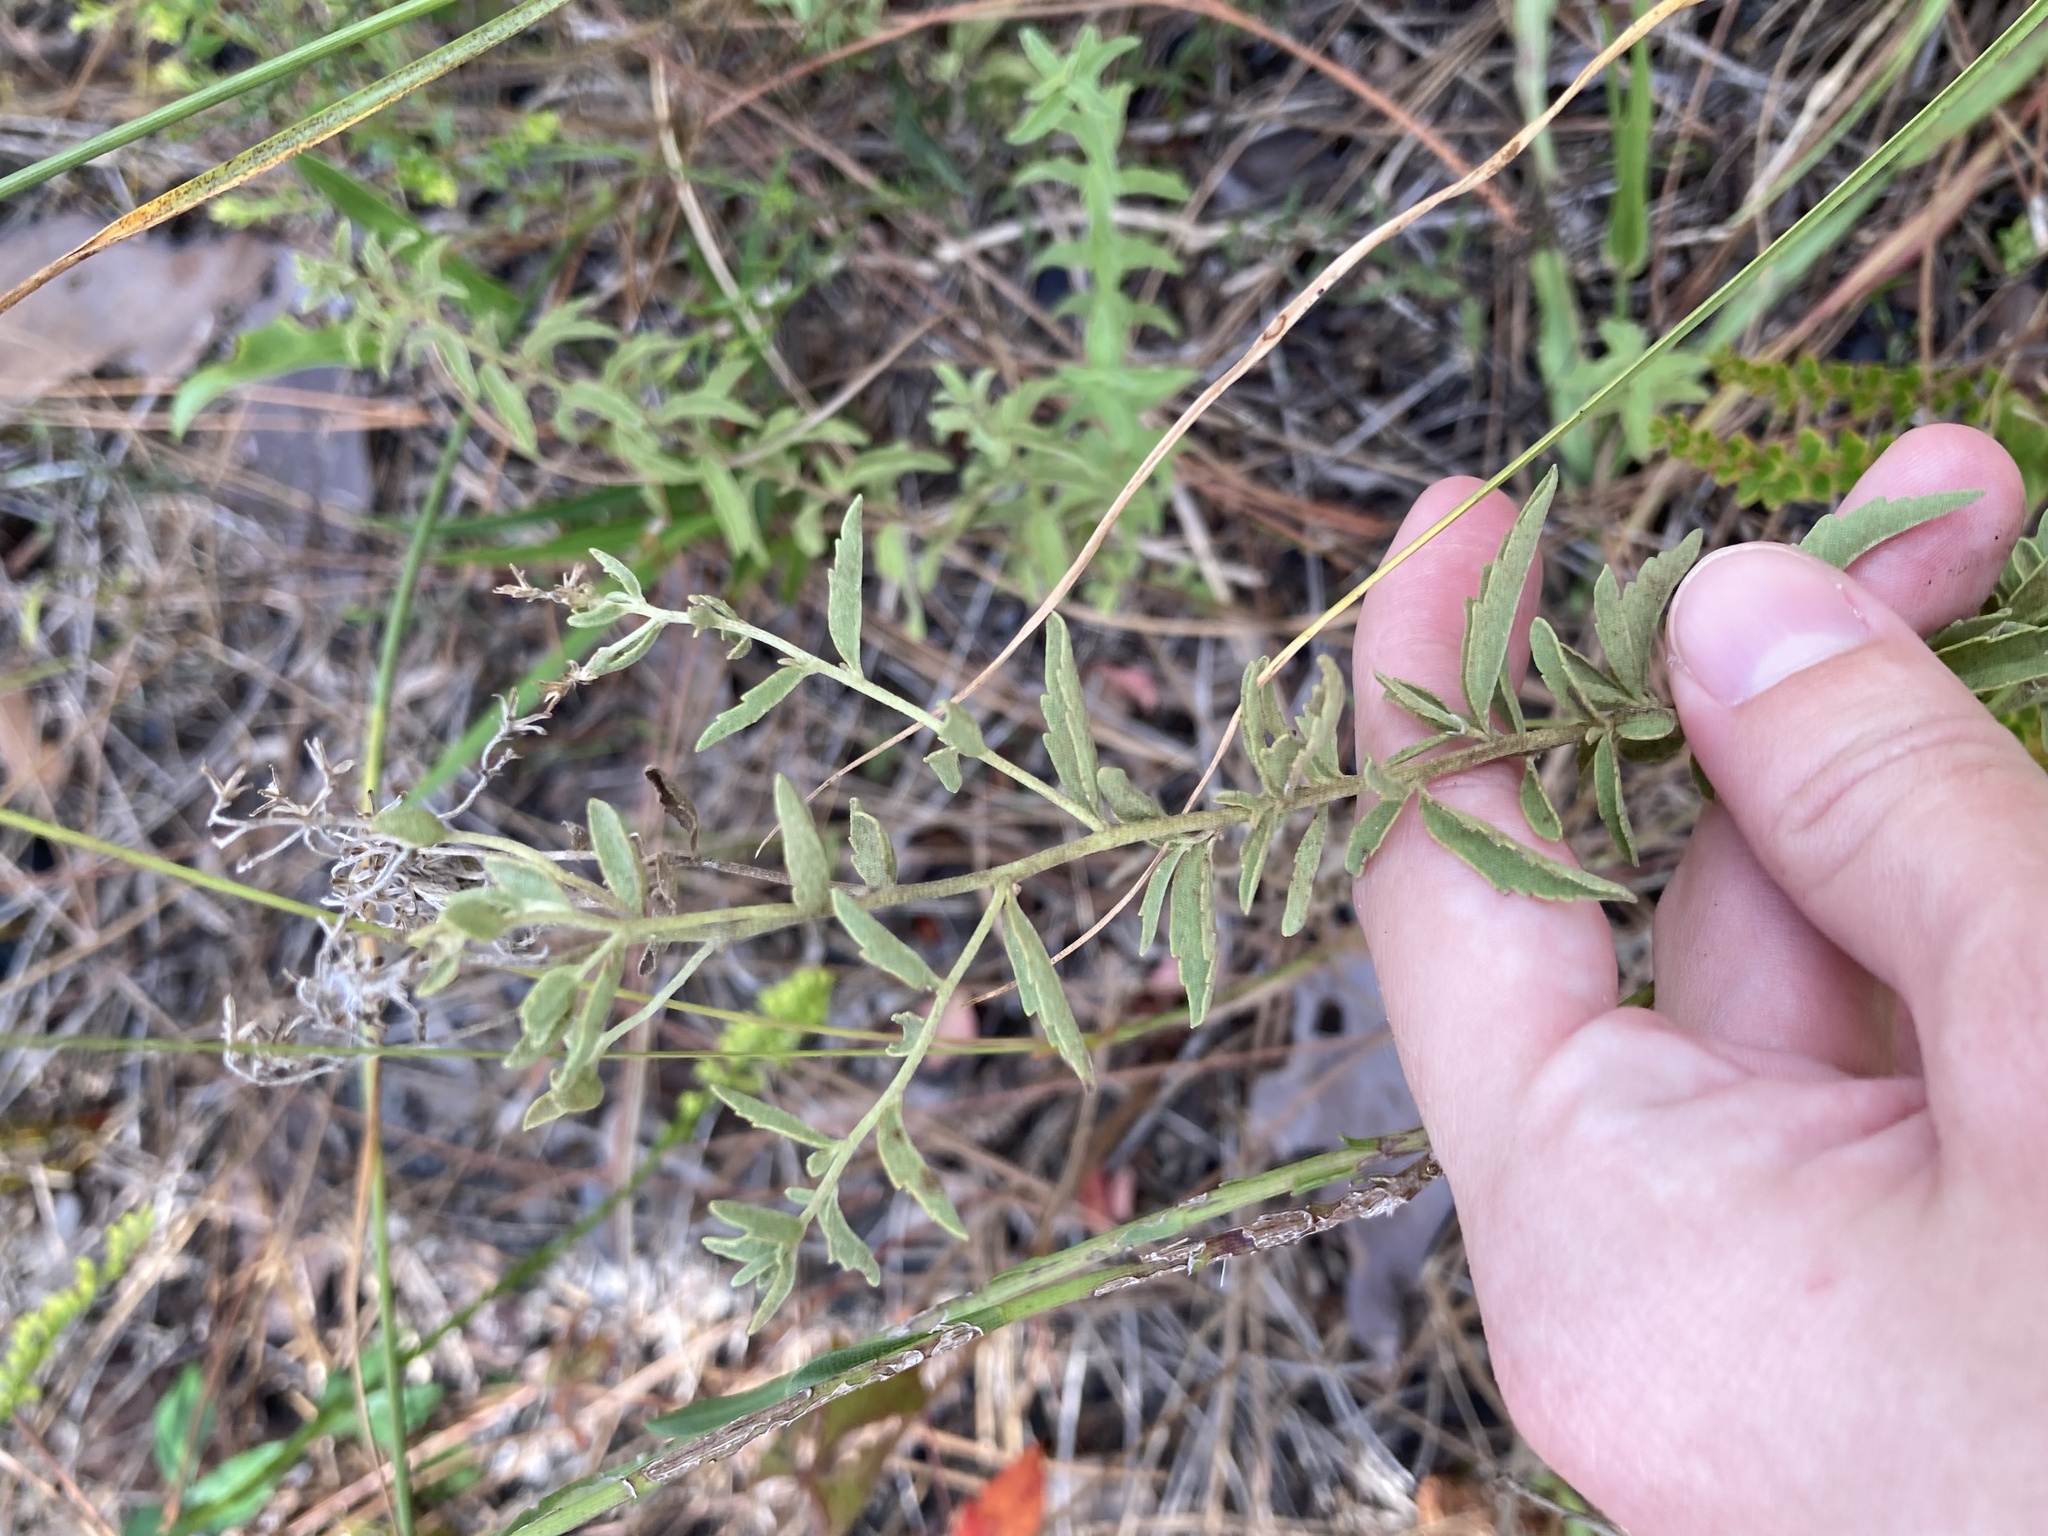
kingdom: Plantae
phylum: Tracheophyta
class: Magnoliopsida
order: Asterales
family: Asteraceae
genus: Eupatorium
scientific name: Eupatorium mohrii
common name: Mohr's thoroughwort
